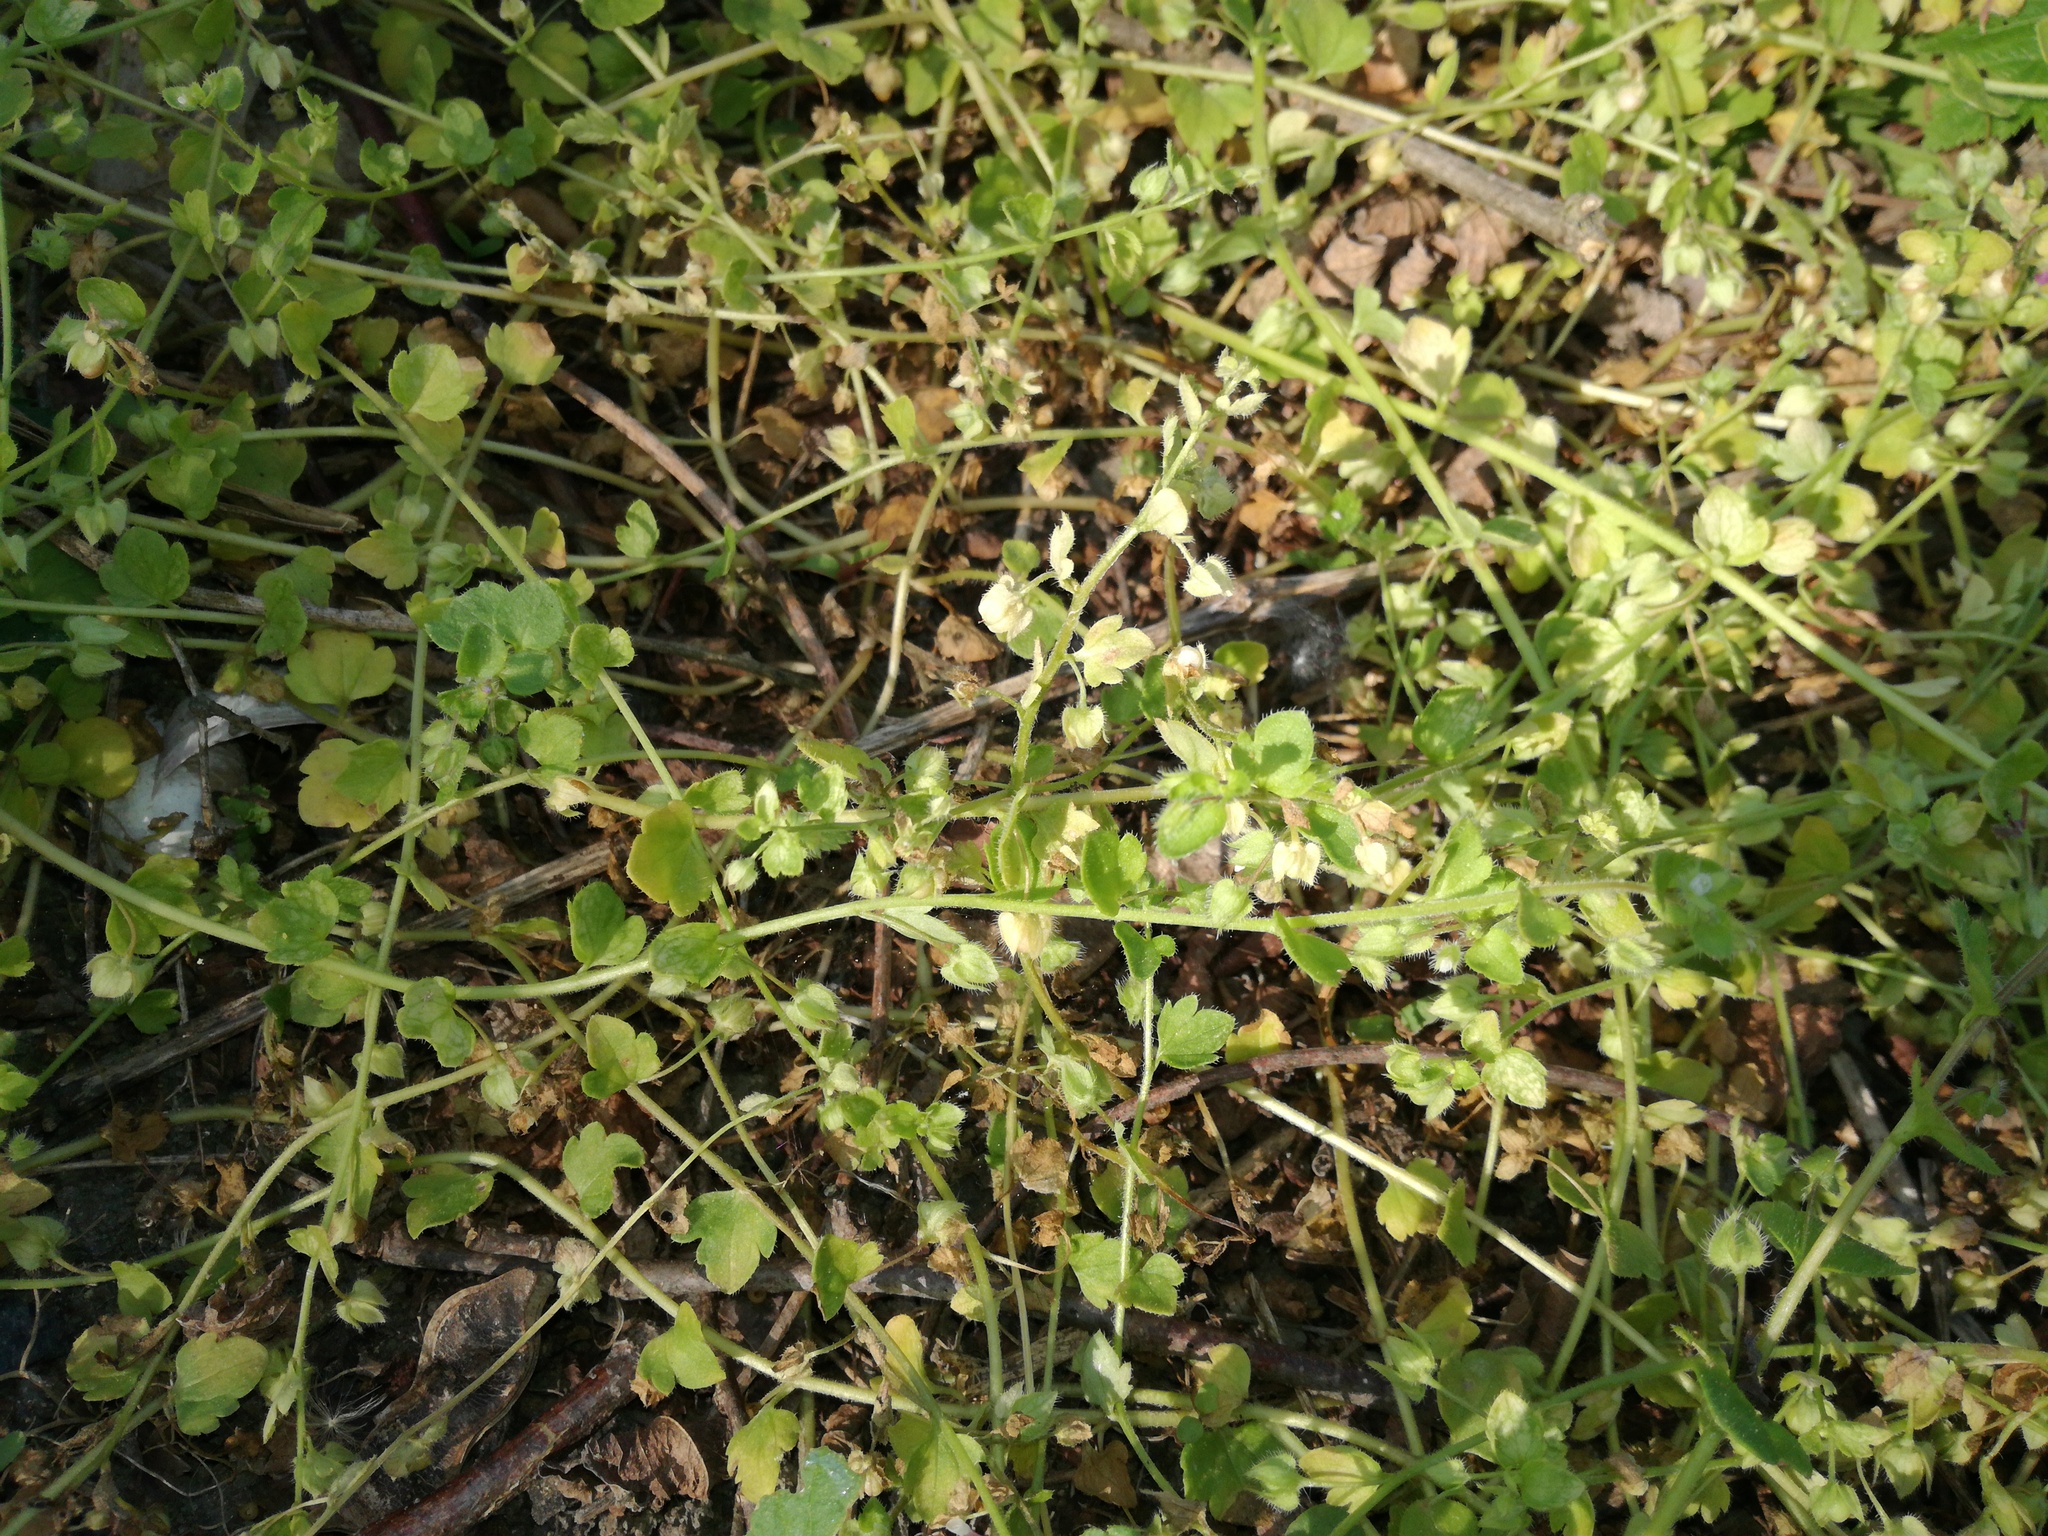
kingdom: Plantae
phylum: Tracheophyta
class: Magnoliopsida
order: Lamiales
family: Plantaginaceae
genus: Veronica
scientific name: Veronica hederifolia
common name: Ivy-leaved speedwell
